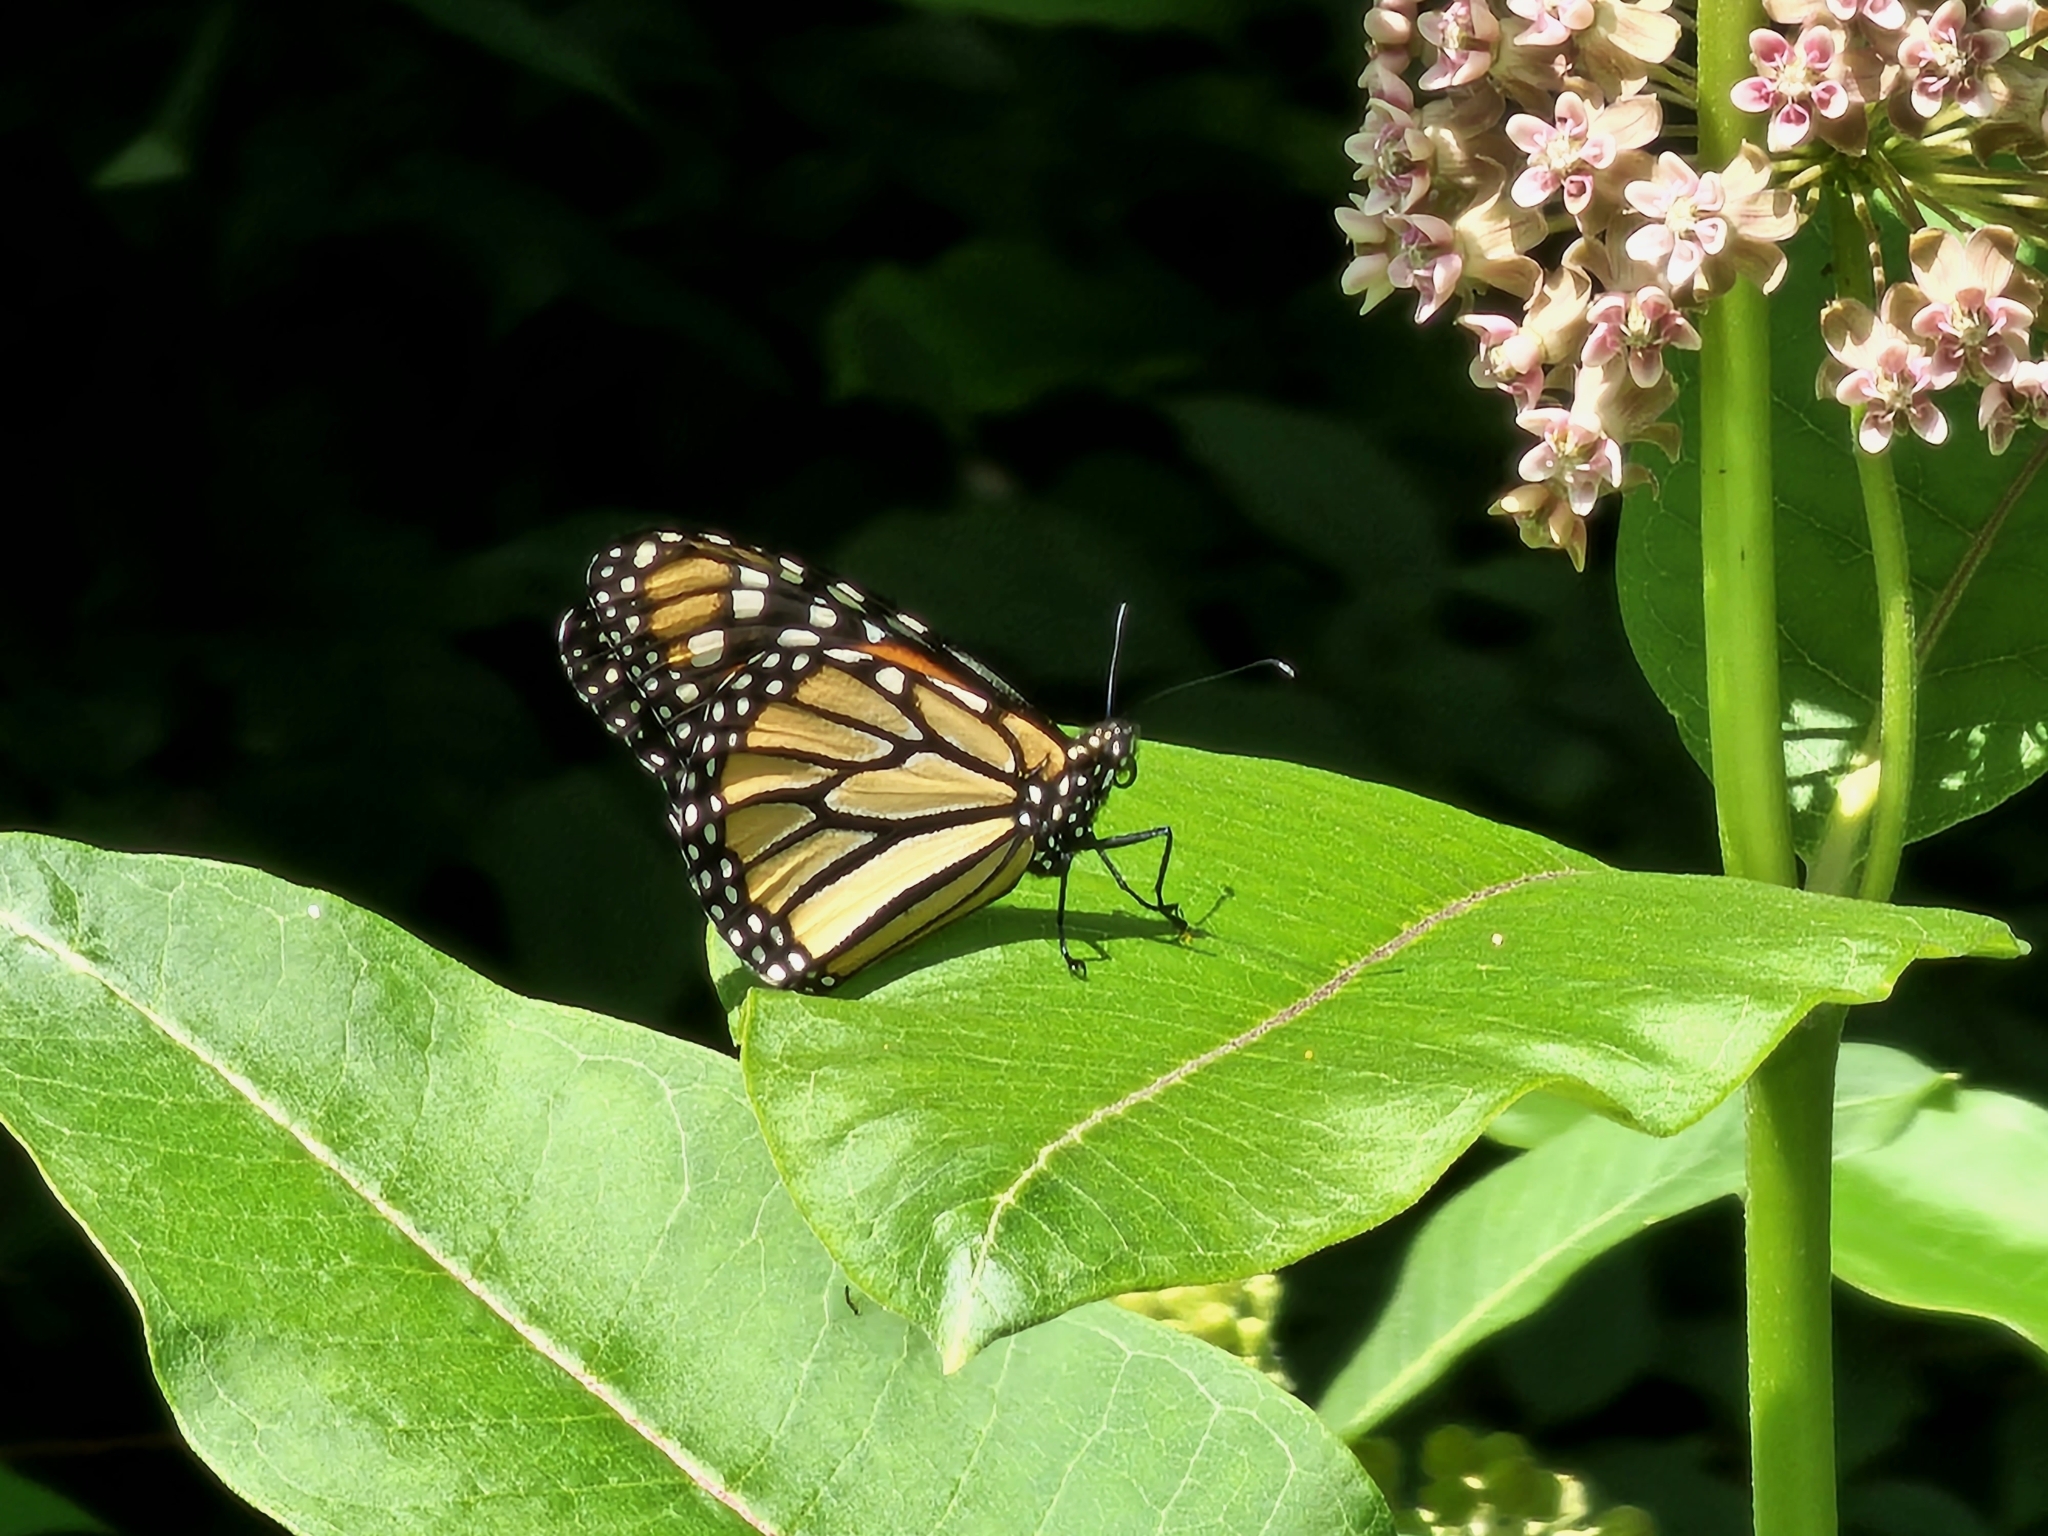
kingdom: Animalia
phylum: Arthropoda
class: Insecta
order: Lepidoptera
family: Nymphalidae
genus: Danaus
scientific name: Danaus plexippus
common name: Monarch
